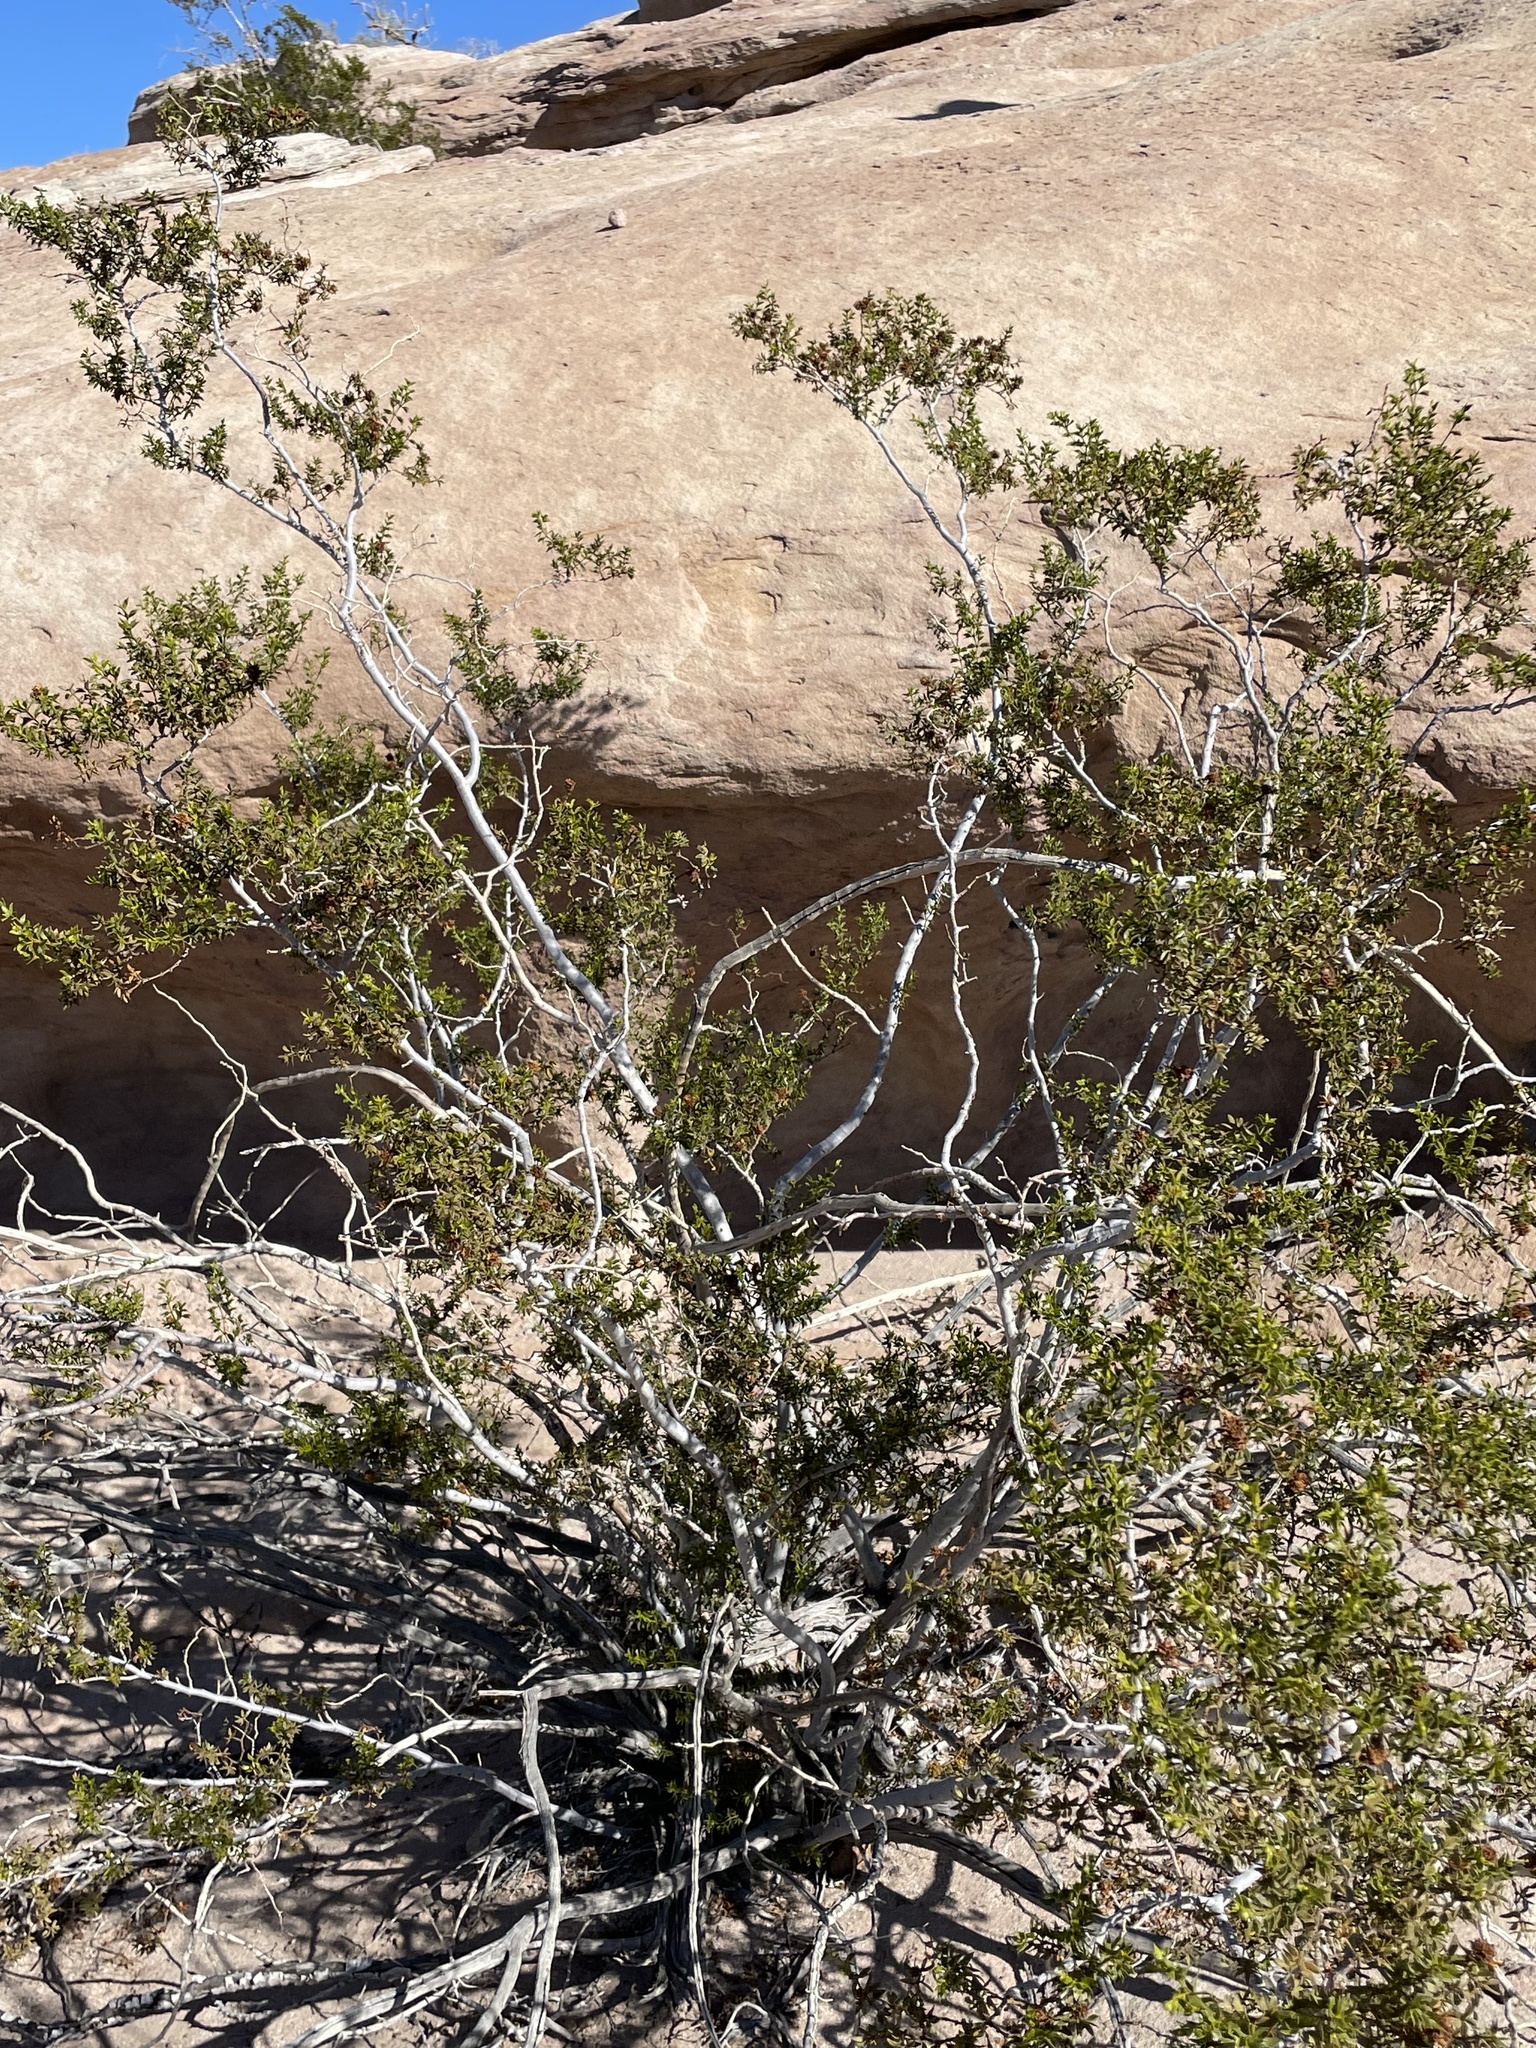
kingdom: Plantae
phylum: Tracheophyta
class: Magnoliopsida
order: Zygophyllales
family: Zygophyllaceae
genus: Larrea
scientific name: Larrea tridentata
